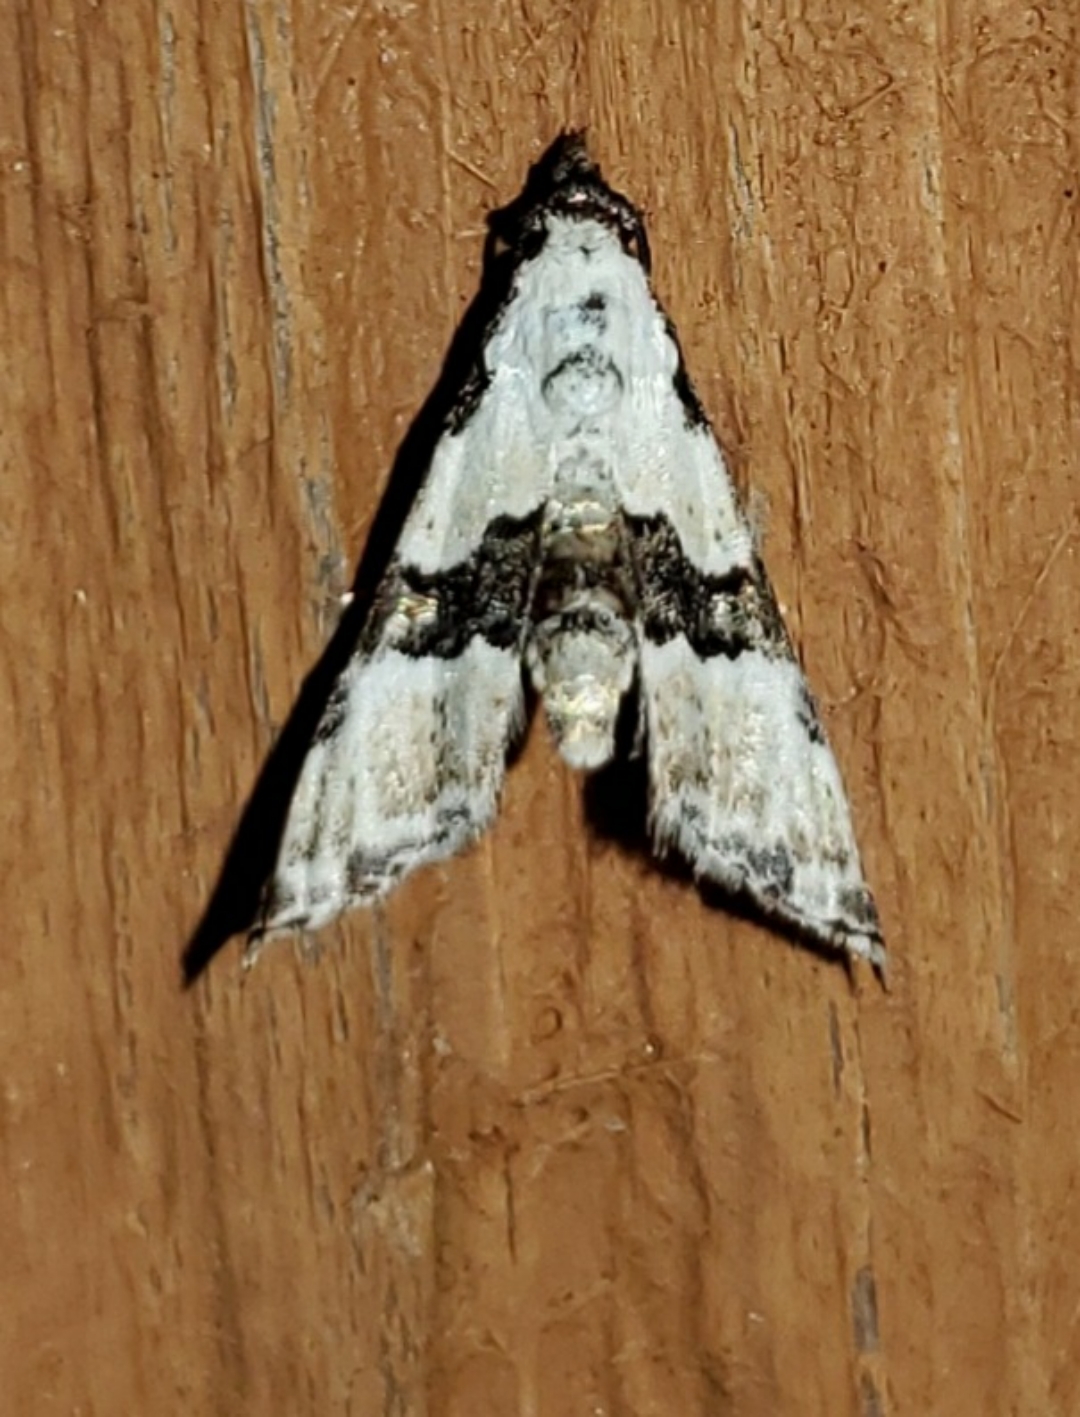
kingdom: Animalia
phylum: Arthropoda
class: Insecta
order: Lepidoptera
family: Noctuidae
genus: Nigetia
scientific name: Nigetia formosalis
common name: Thin-winged owlet
